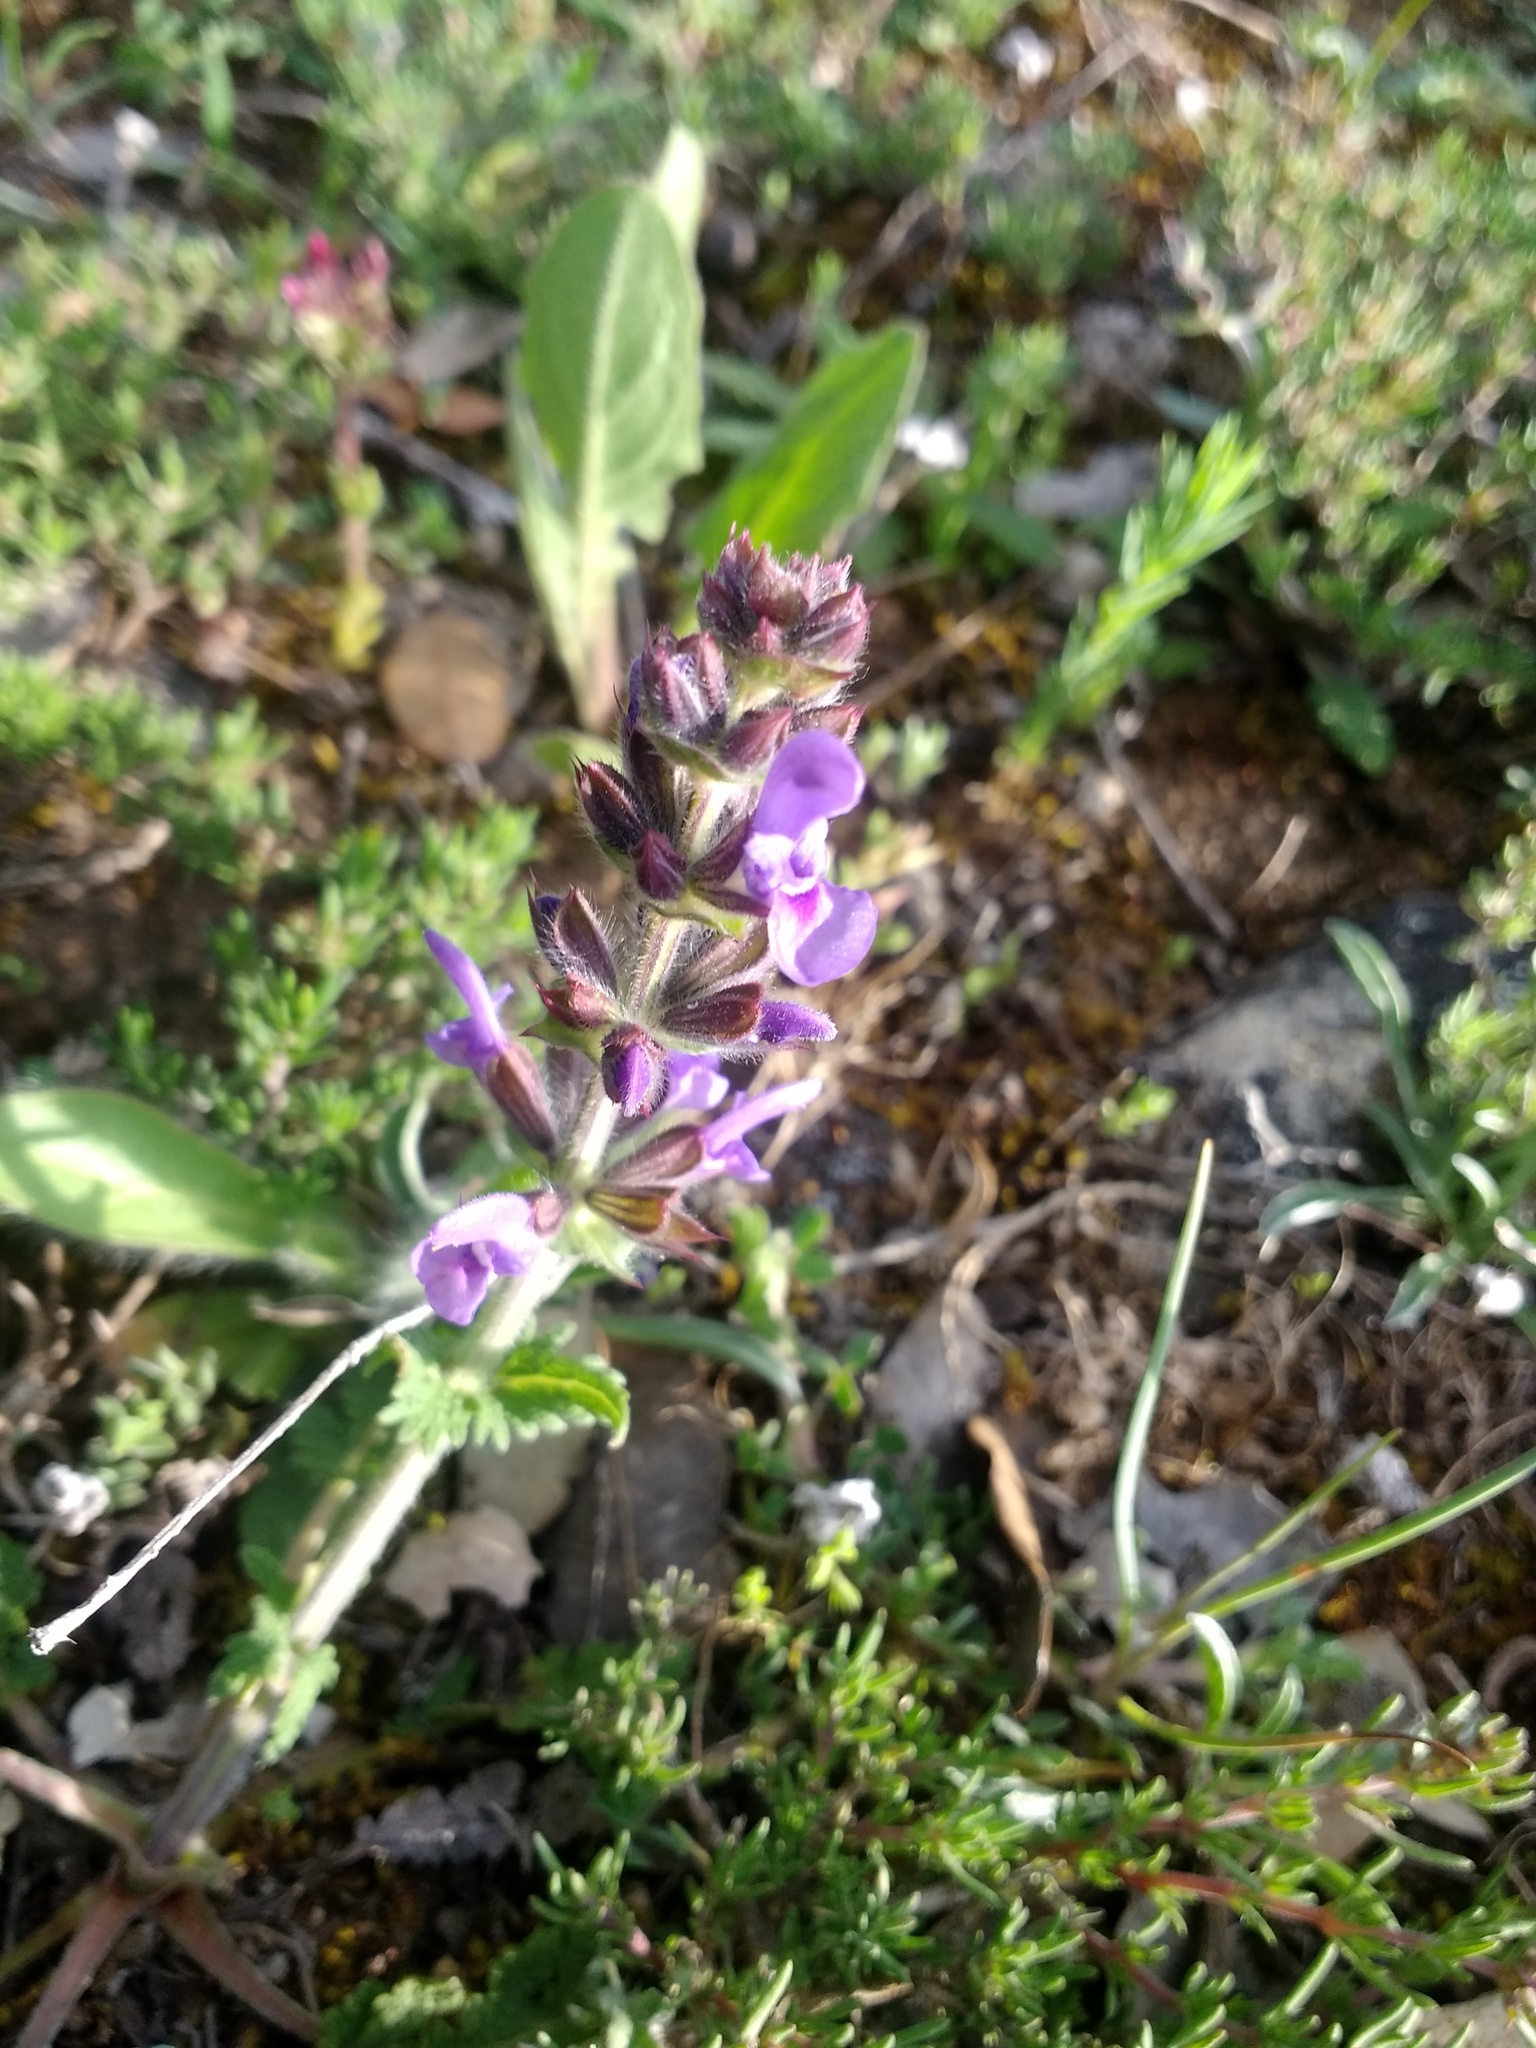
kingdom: Plantae
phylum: Tracheophyta
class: Magnoliopsida
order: Lamiales
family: Lamiaceae
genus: Salvia
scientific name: Salvia verbenaca
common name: Wild clary
